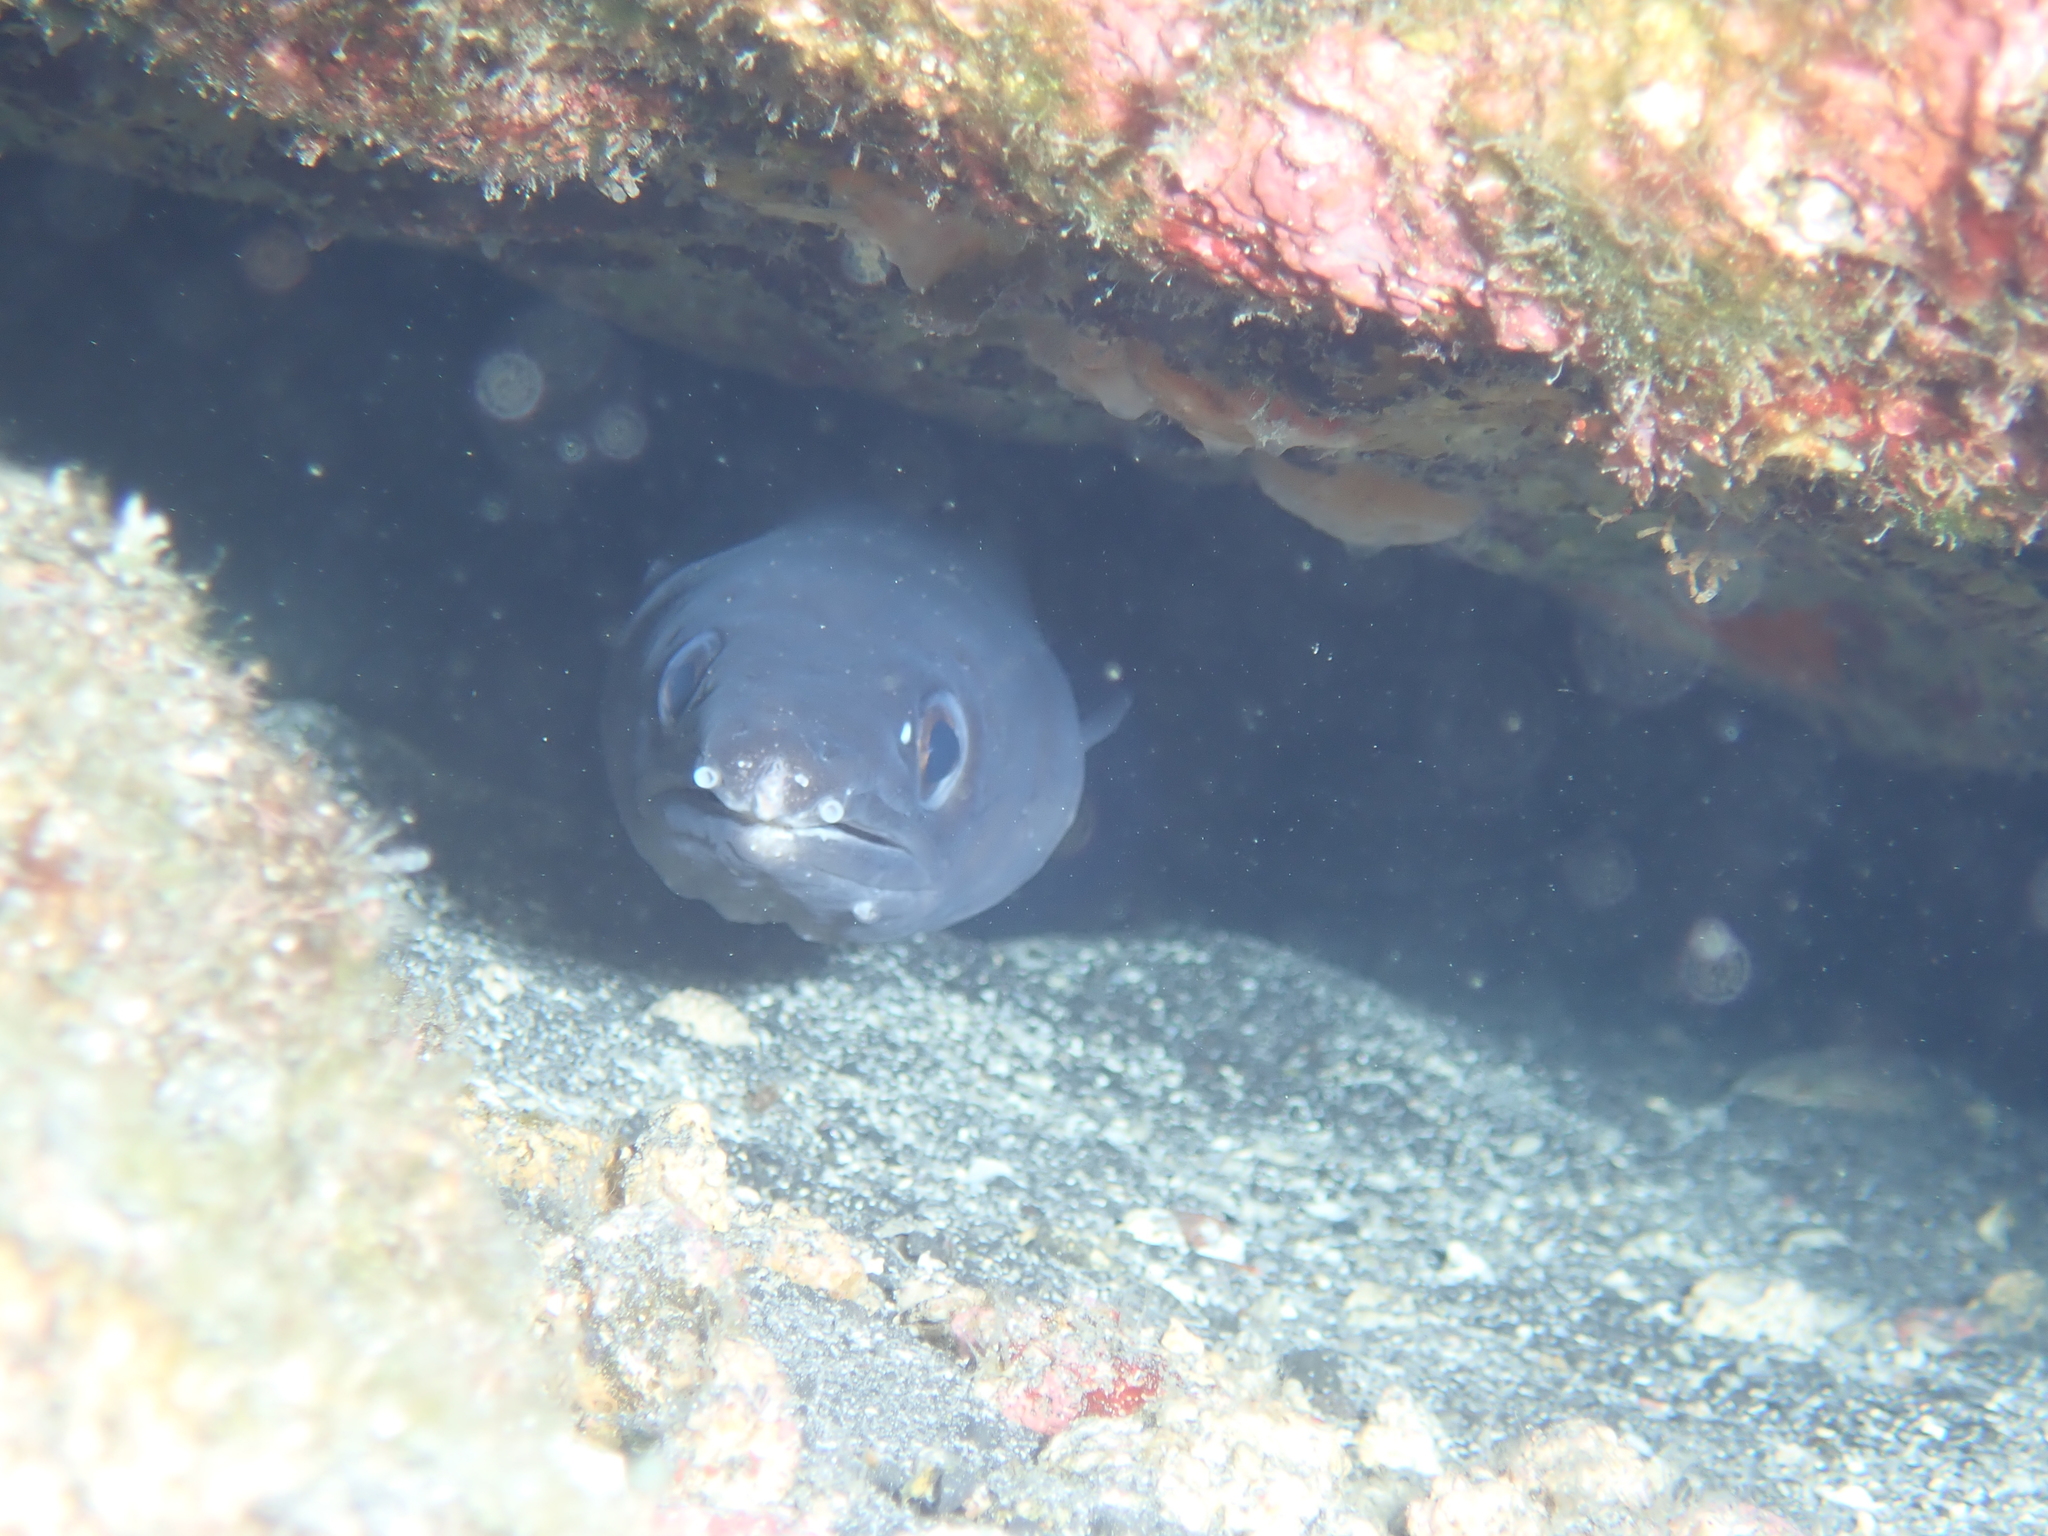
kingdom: Animalia
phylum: Chordata
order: Anguilliformes
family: Congridae
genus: Conger
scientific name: Conger marginatus
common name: Ash-colored conger eel
